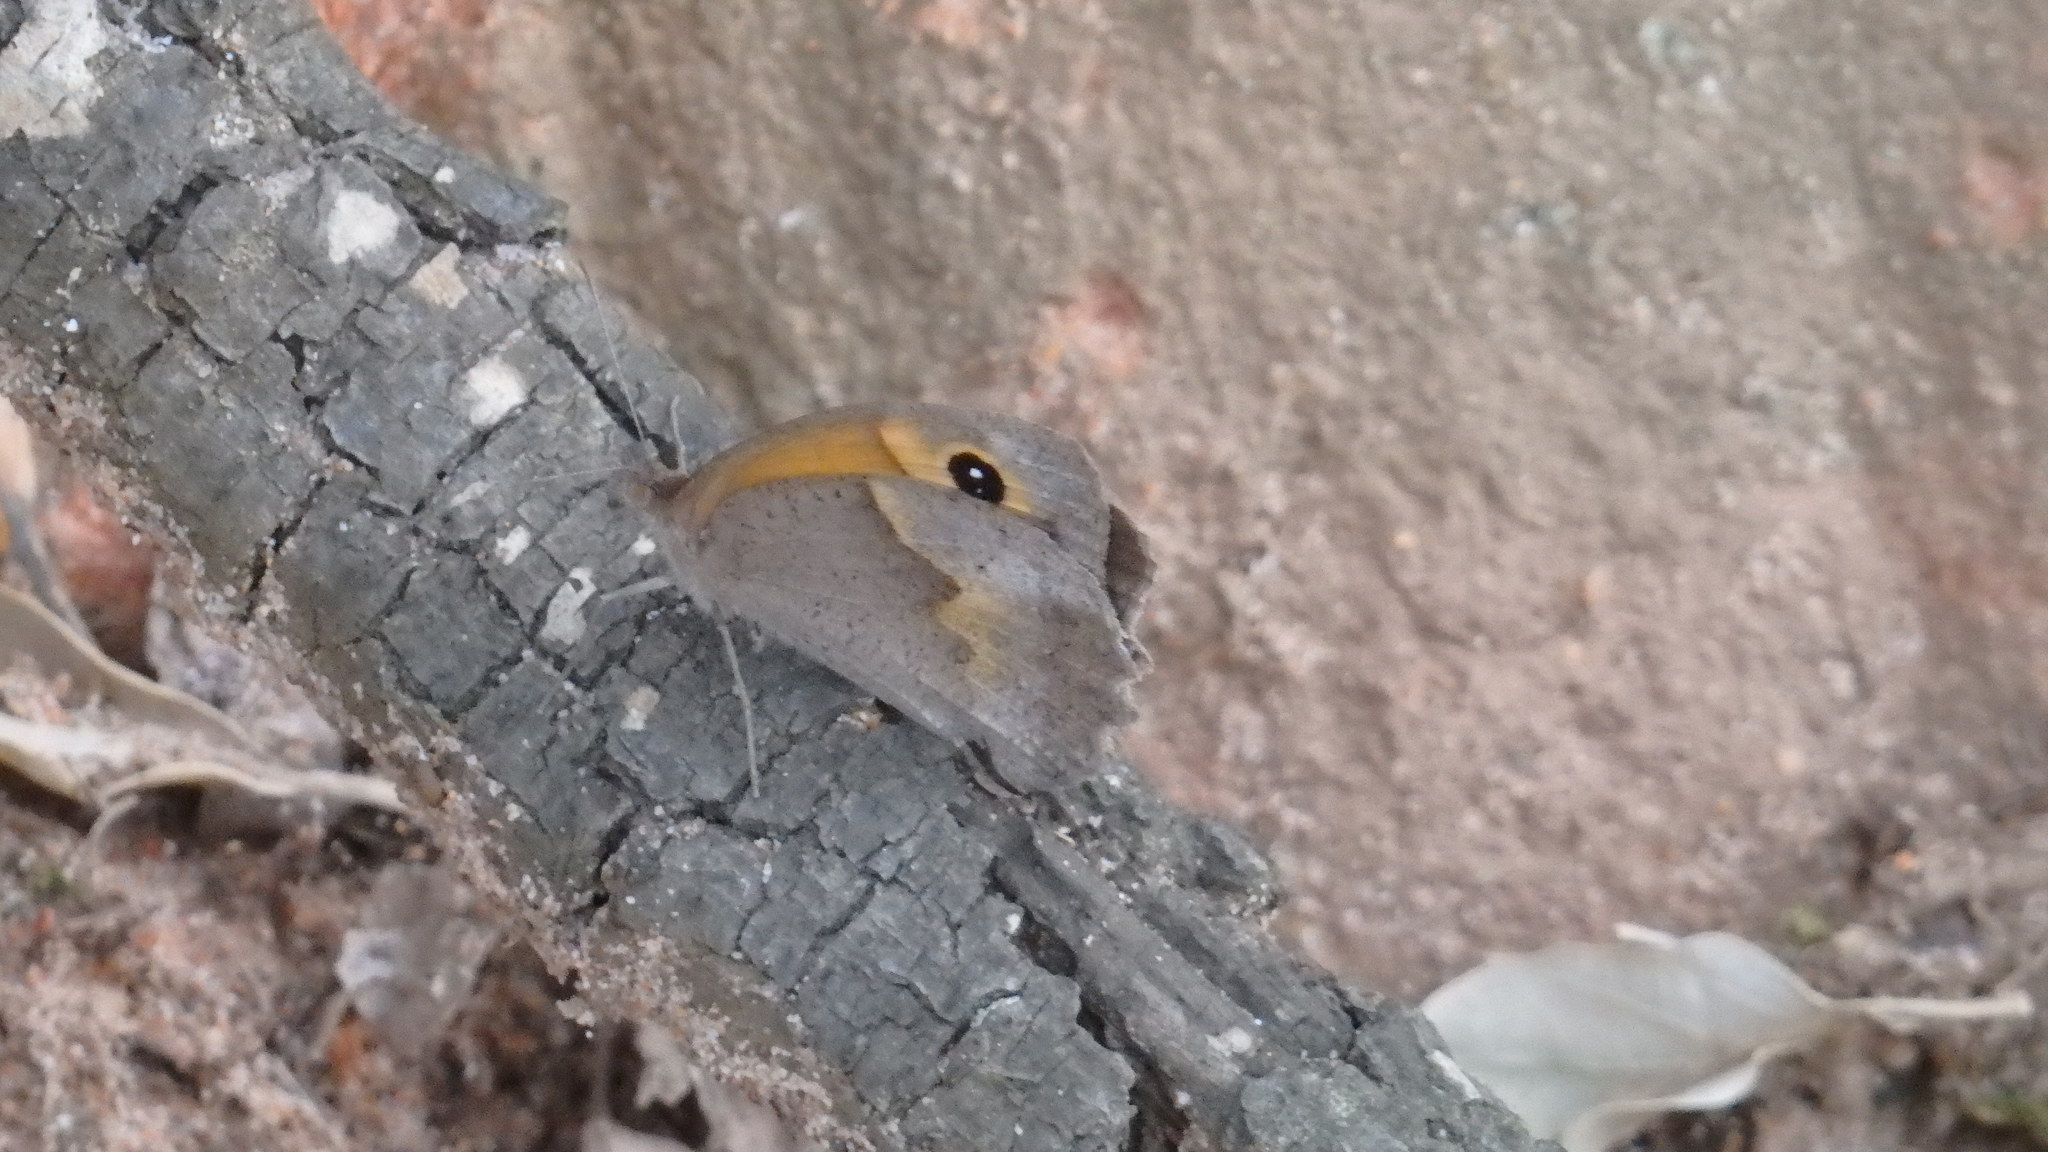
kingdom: Animalia
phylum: Arthropoda
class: Insecta
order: Lepidoptera
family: Nymphalidae
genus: Maniola
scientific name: Maniola jurtina
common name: Meadow brown
